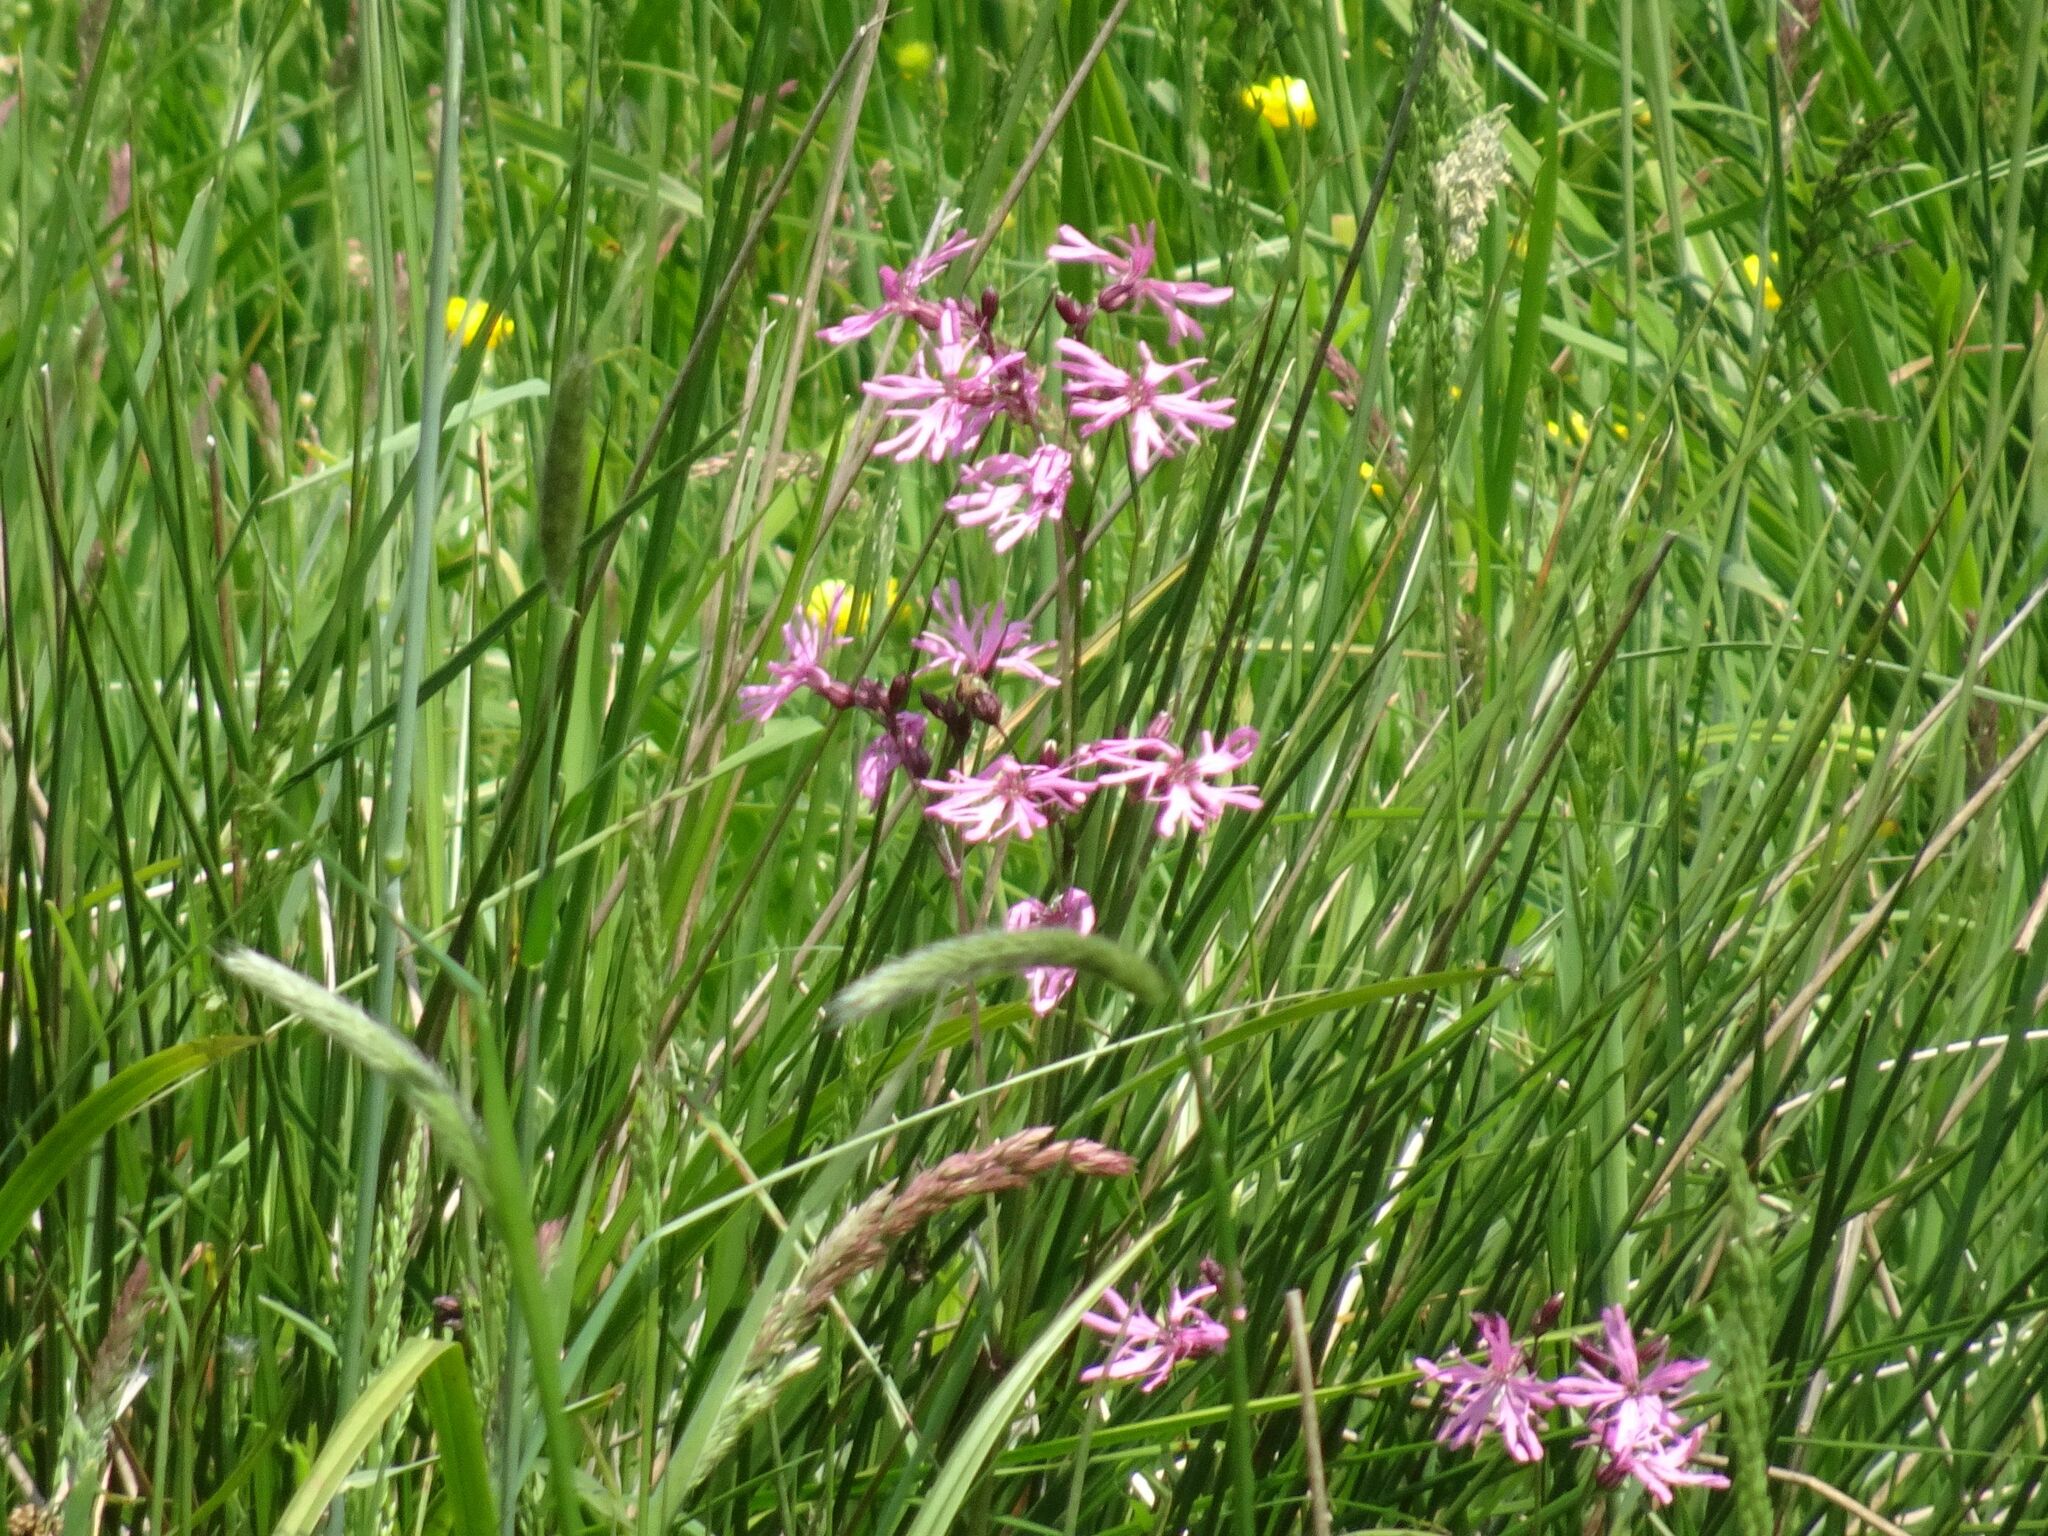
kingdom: Plantae
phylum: Tracheophyta
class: Magnoliopsida
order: Caryophyllales
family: Caryophyllaceae
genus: Silene
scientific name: Silene flos-cuculi
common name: Ragged-robin
